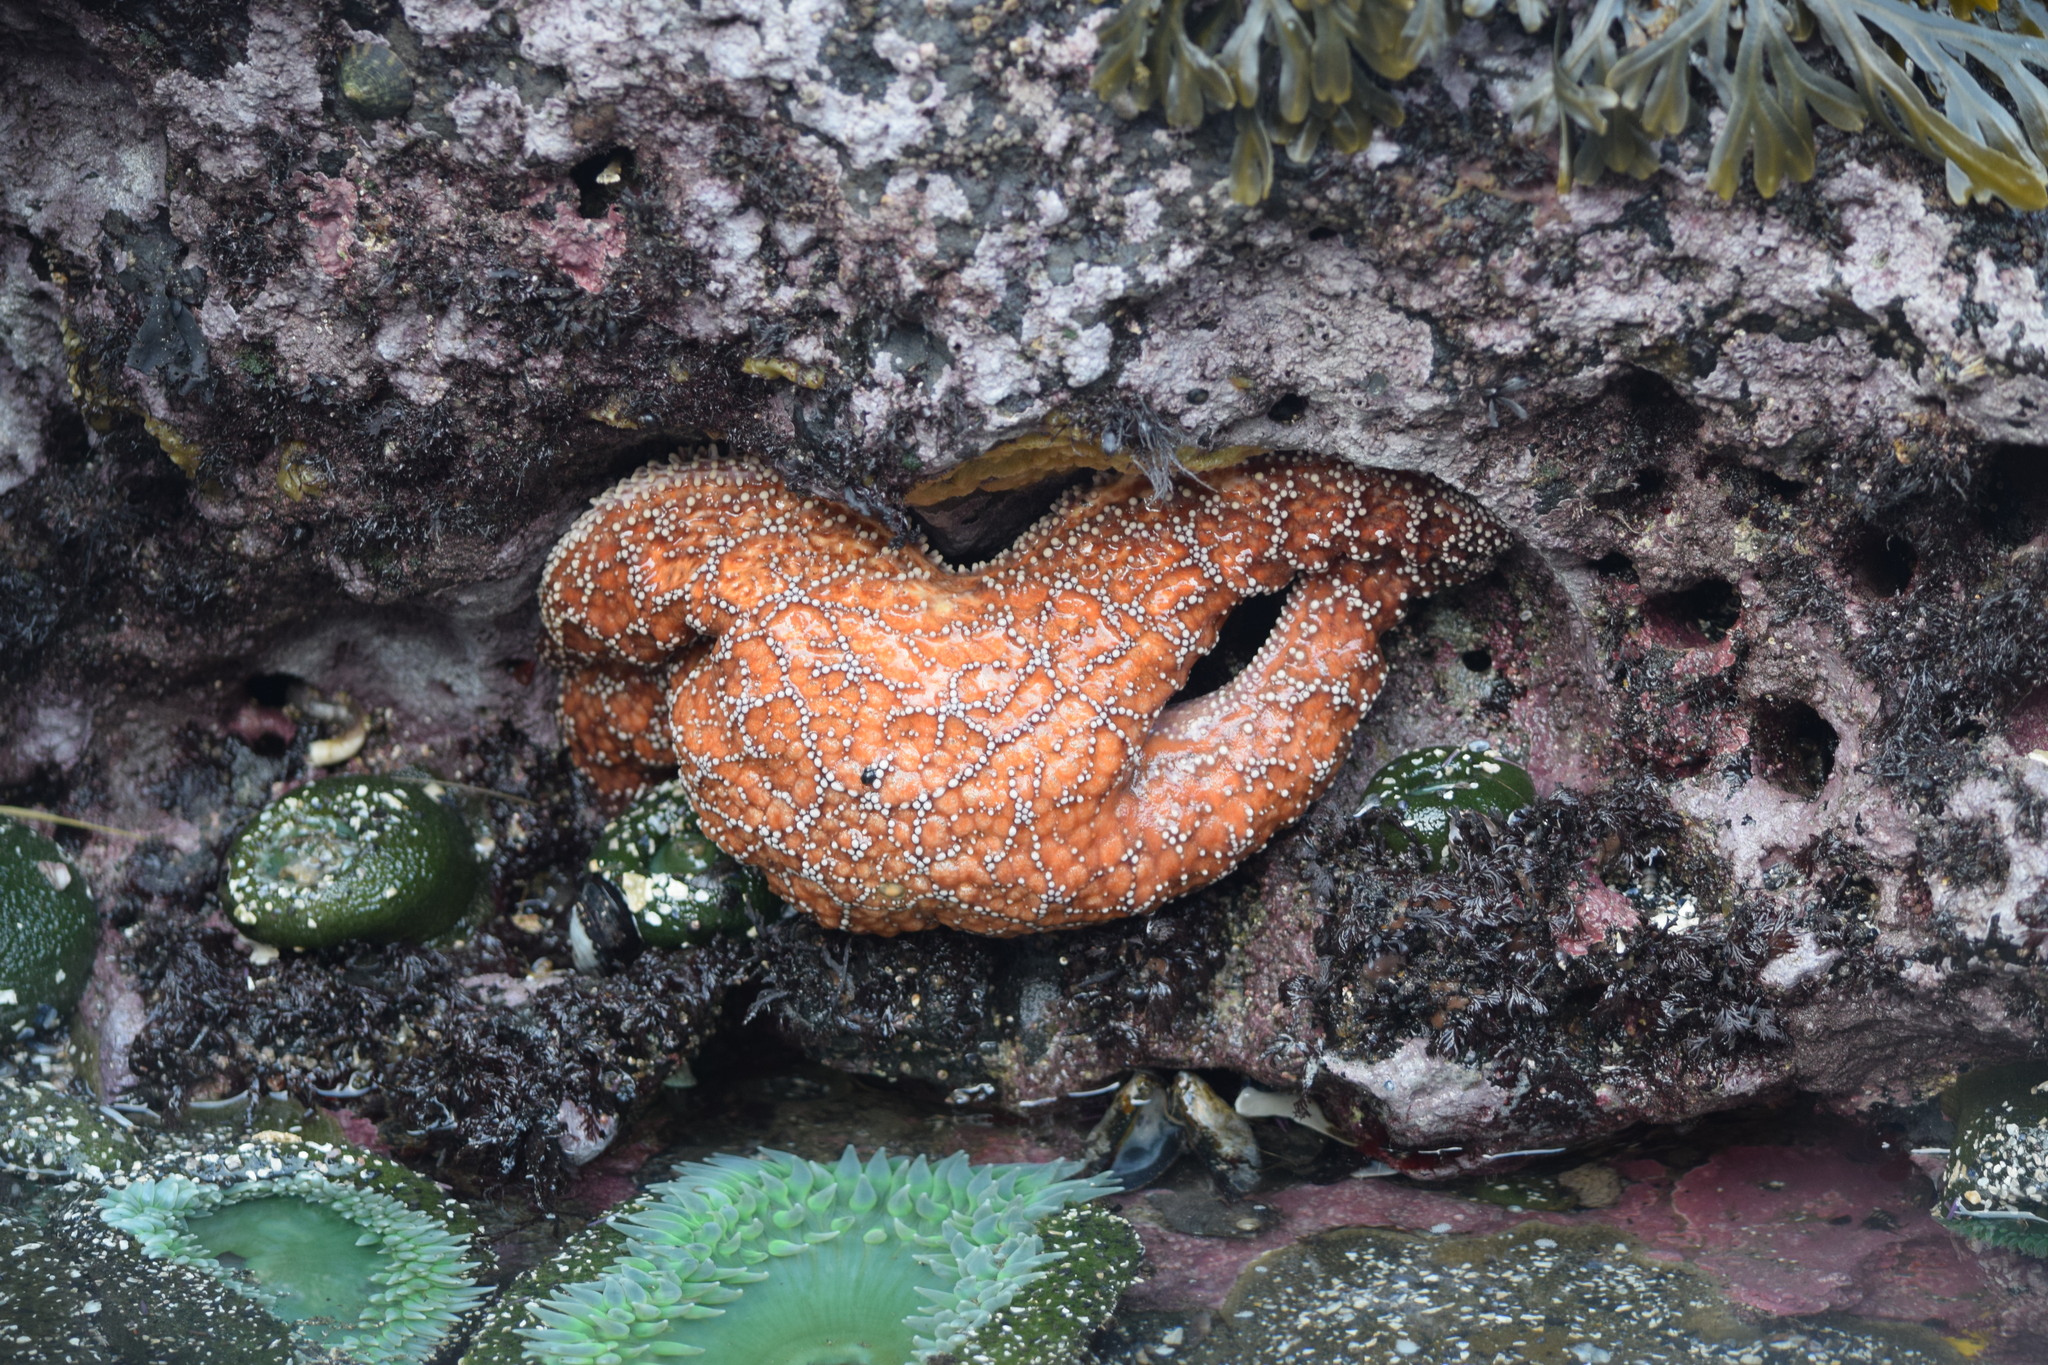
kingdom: Animalia
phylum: Echinodermata
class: Asteroidea
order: Forcipulatida
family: Asteriidae
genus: Pisaster
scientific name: Pisaster ochraceus
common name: Ochre stars
